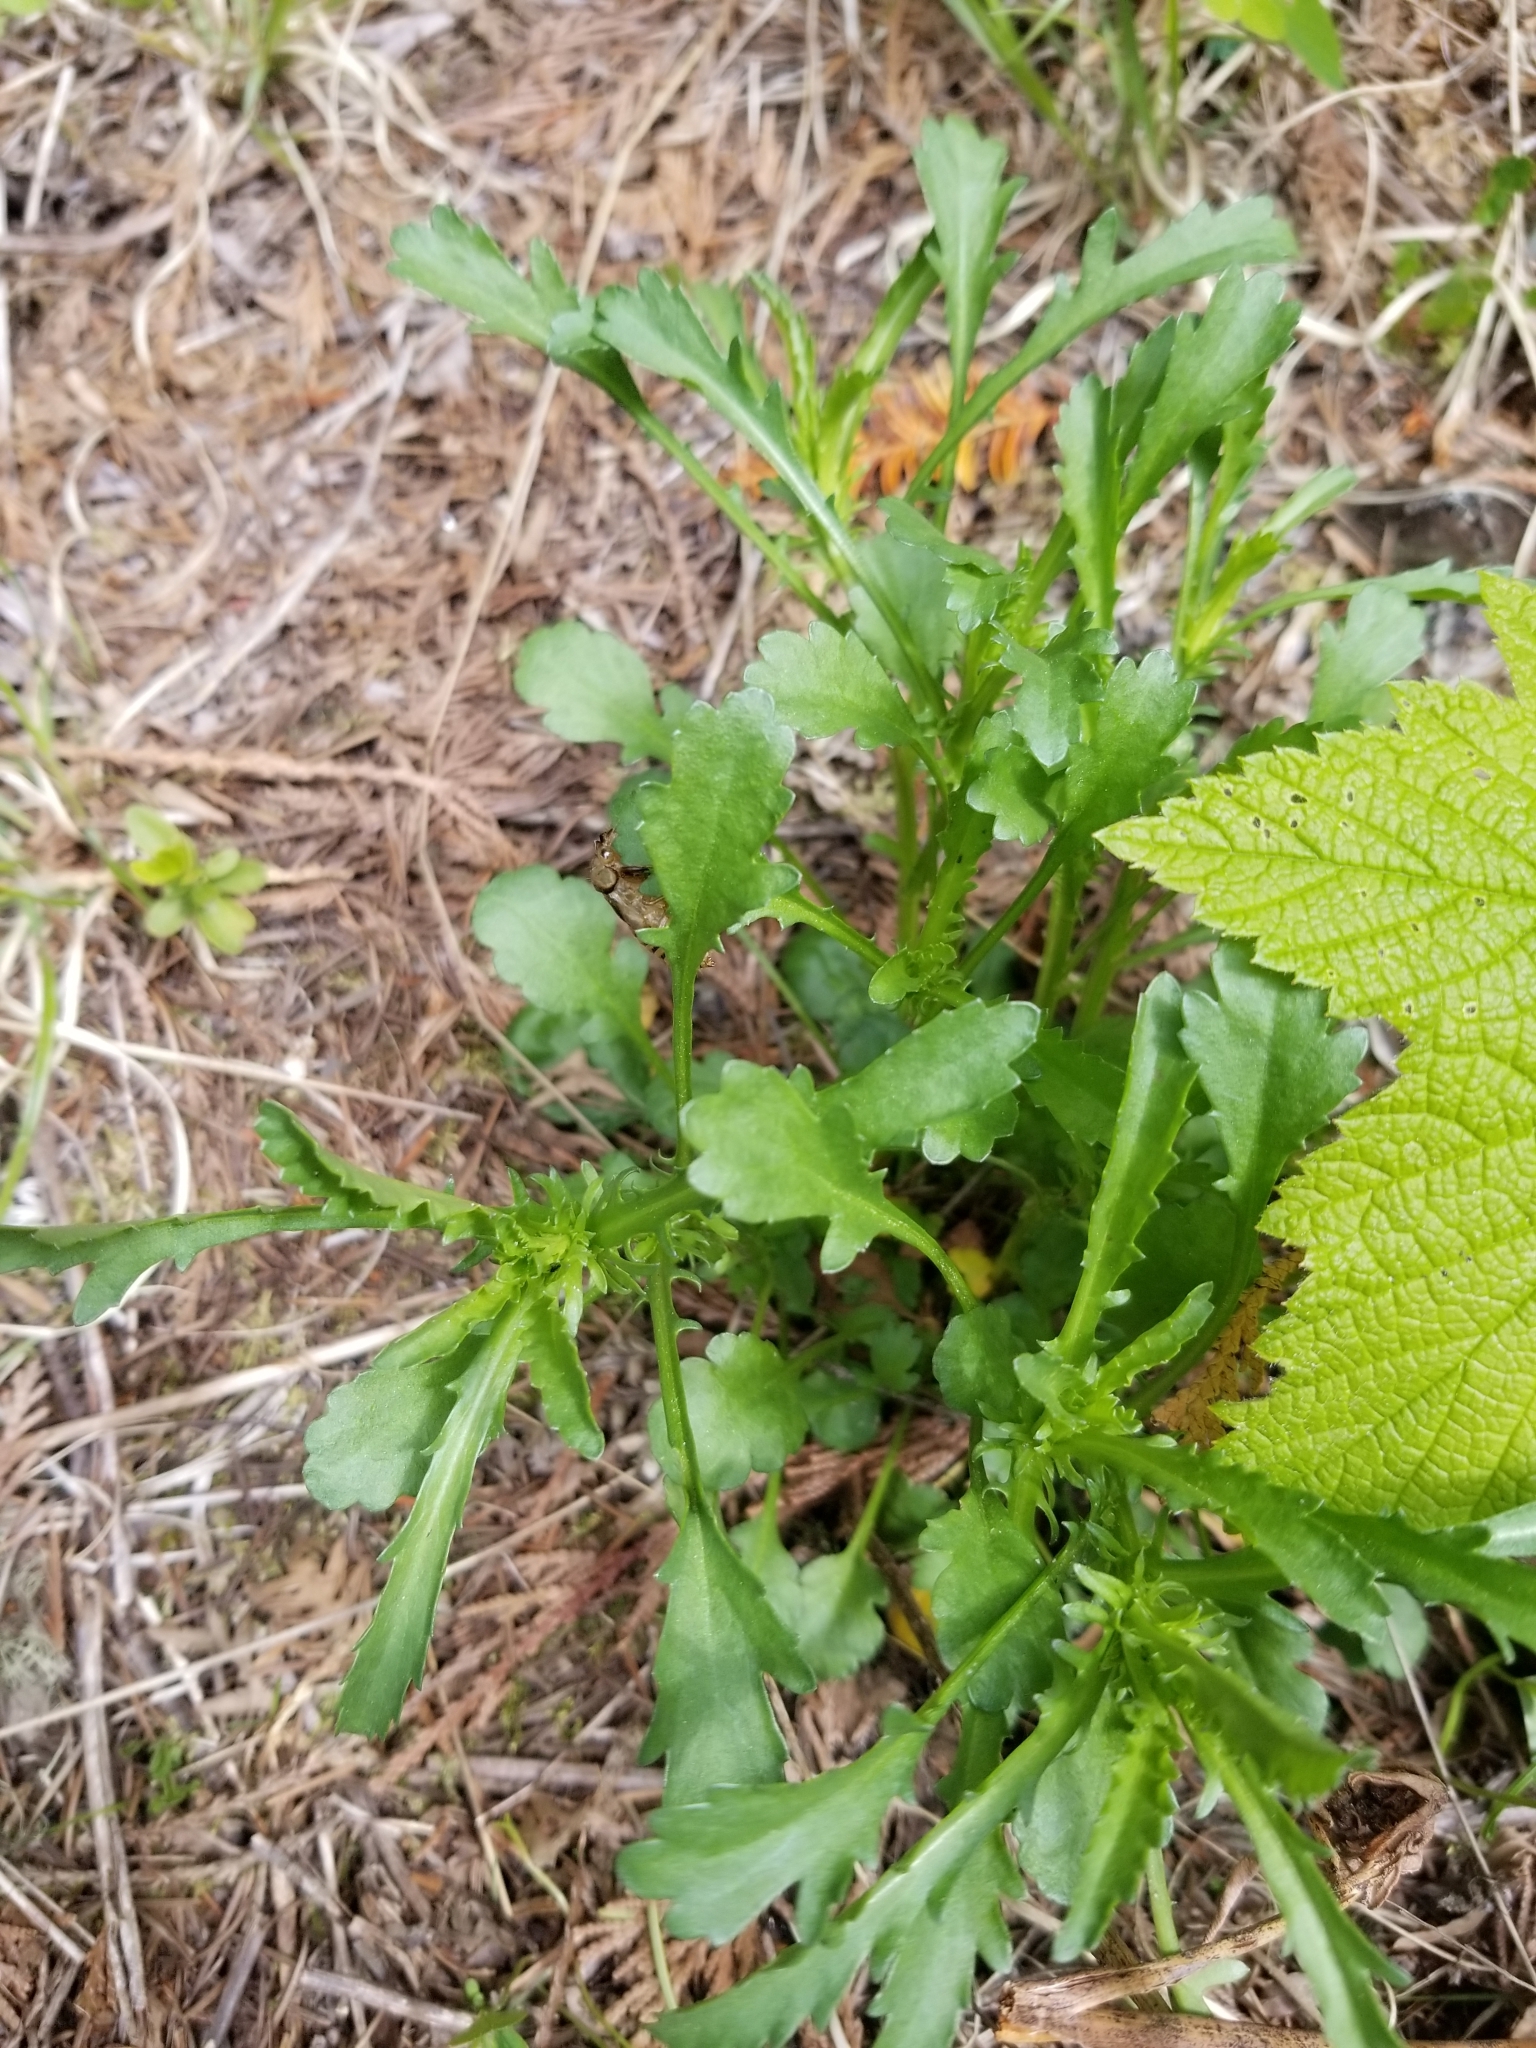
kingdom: Plantae
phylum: Tracheophyta
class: Magnoliopsida
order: Asterales
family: Asteraceae
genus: Leucanthemum
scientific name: Leucanthemum vulgare
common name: Oxeye daisy
